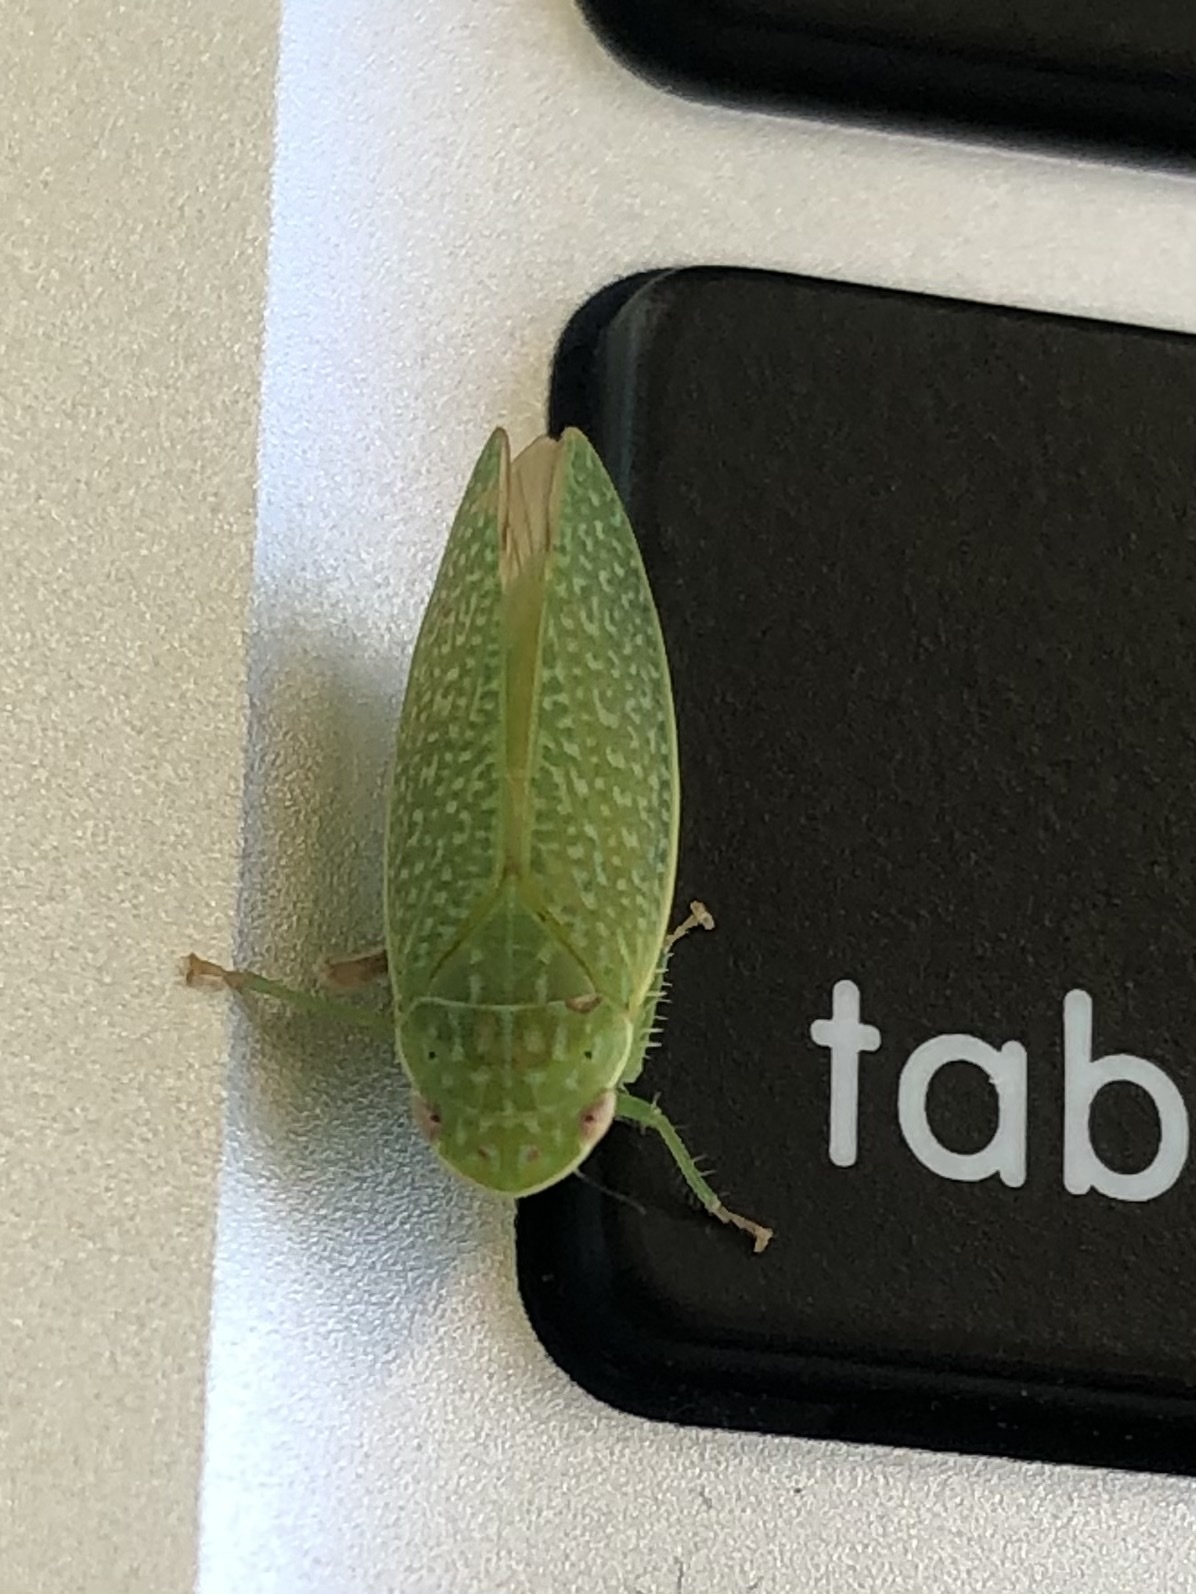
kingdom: Animalia
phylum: Arthropoda
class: Insecta
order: Hemiptera
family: Cicadellidae
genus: Rugosana
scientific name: Rugosana querci
